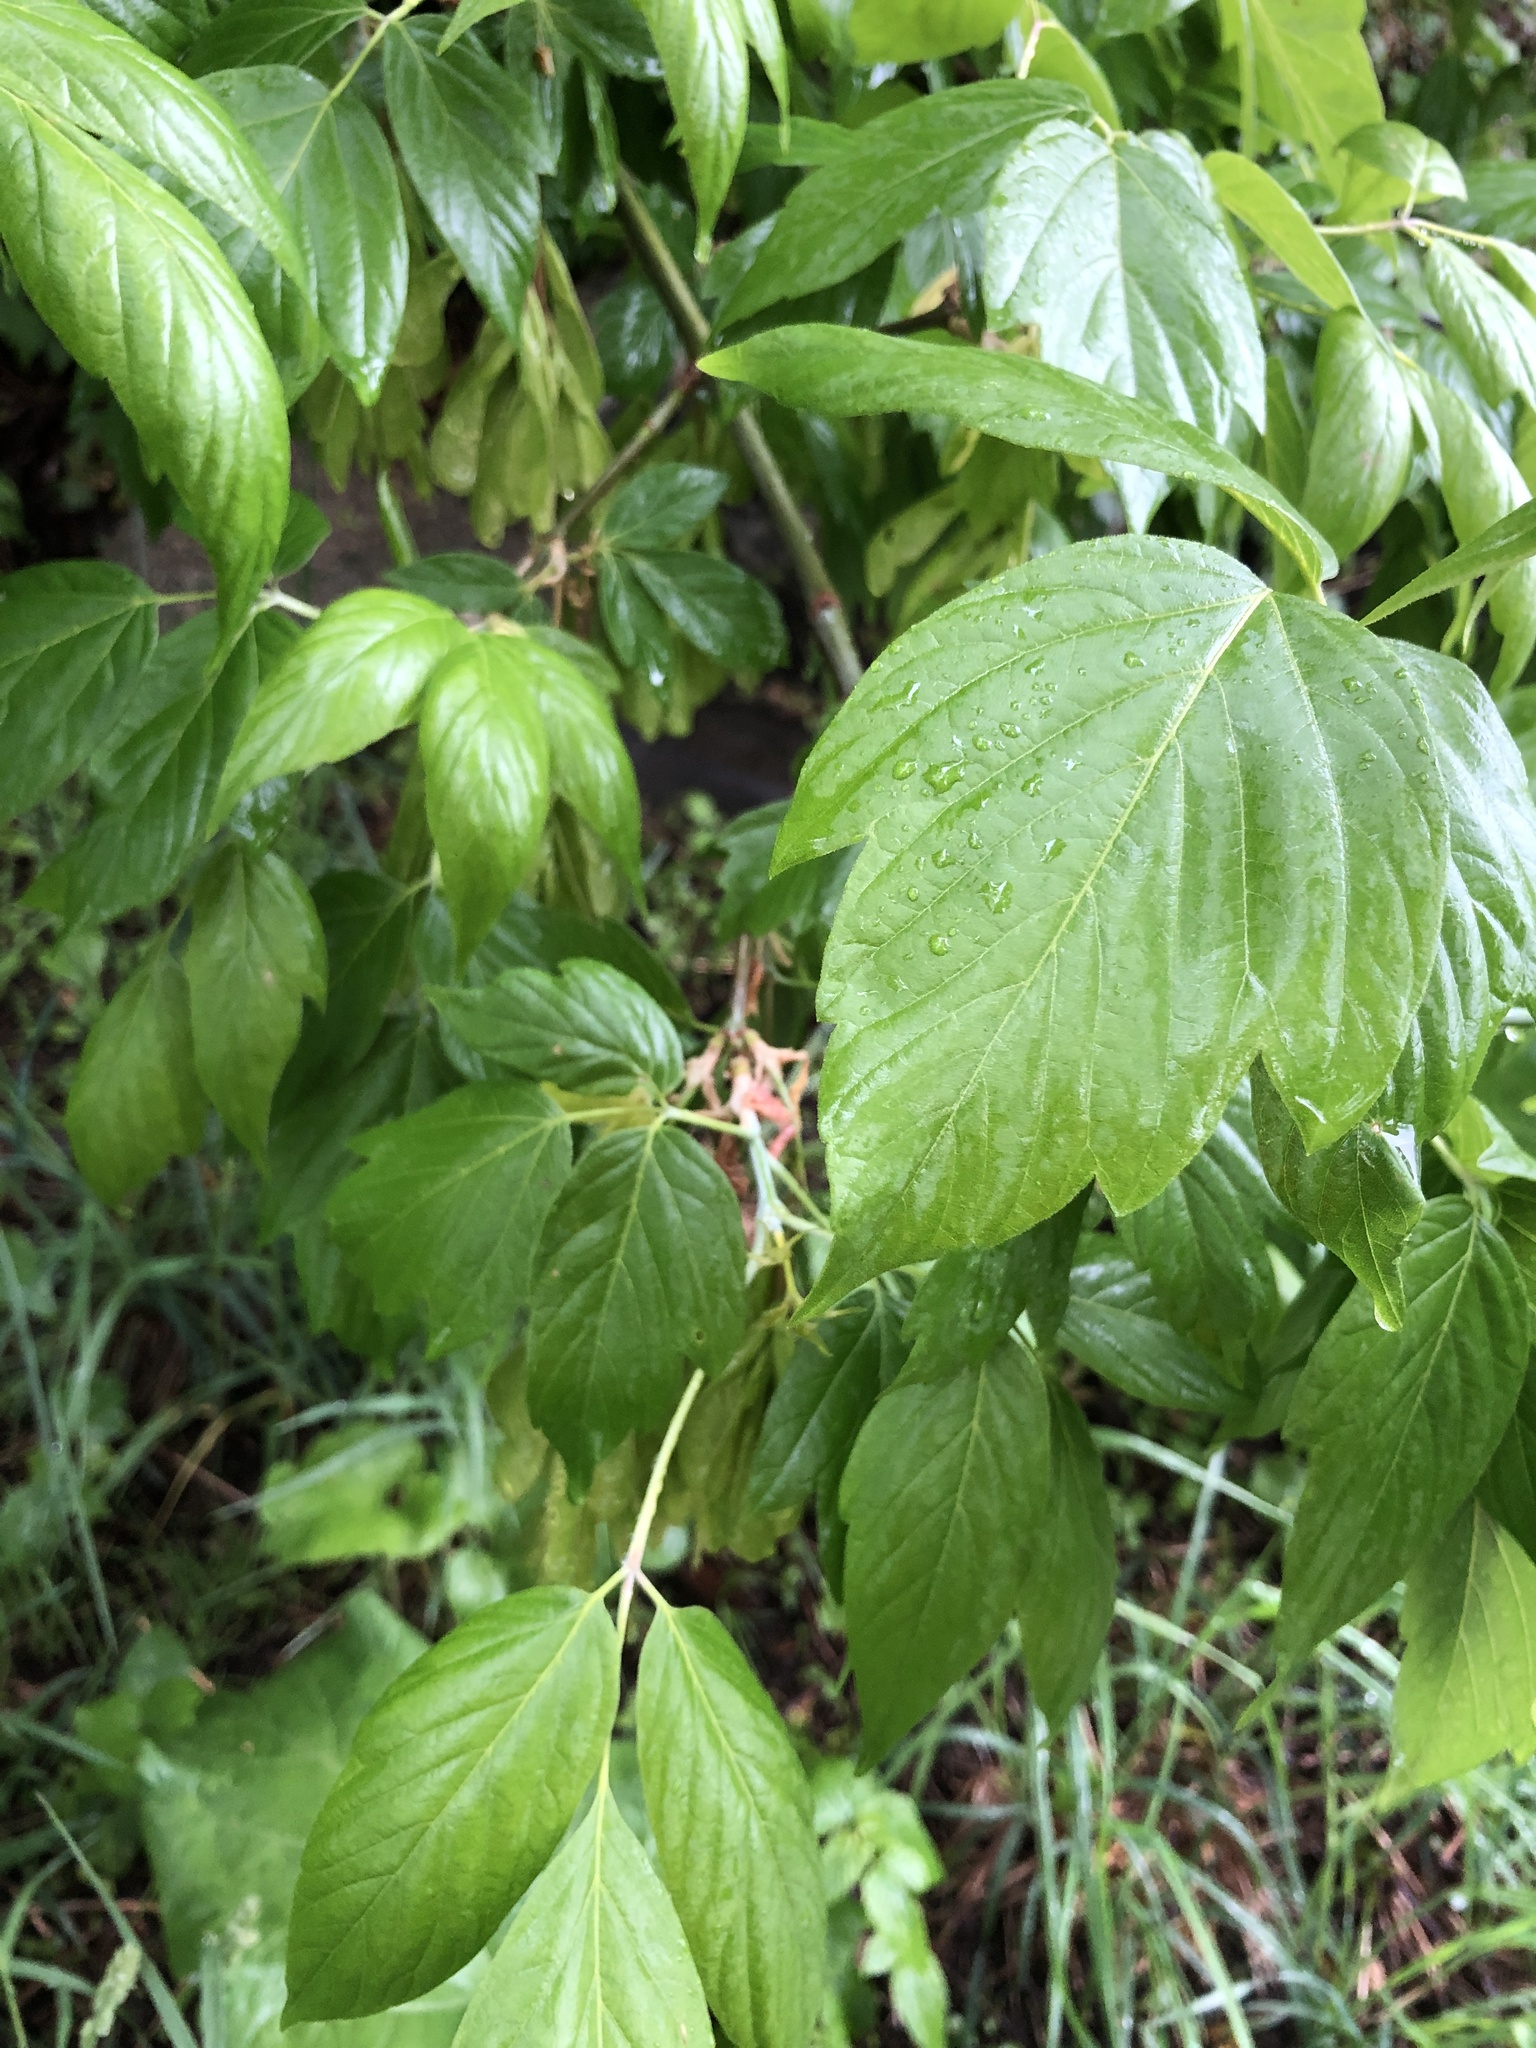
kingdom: Plantae
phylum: Tracheophyta
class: Magnoliopsida
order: Sapindales
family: Sapindaceae
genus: Acer
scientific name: Acer negundo
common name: Ashleaf maple
